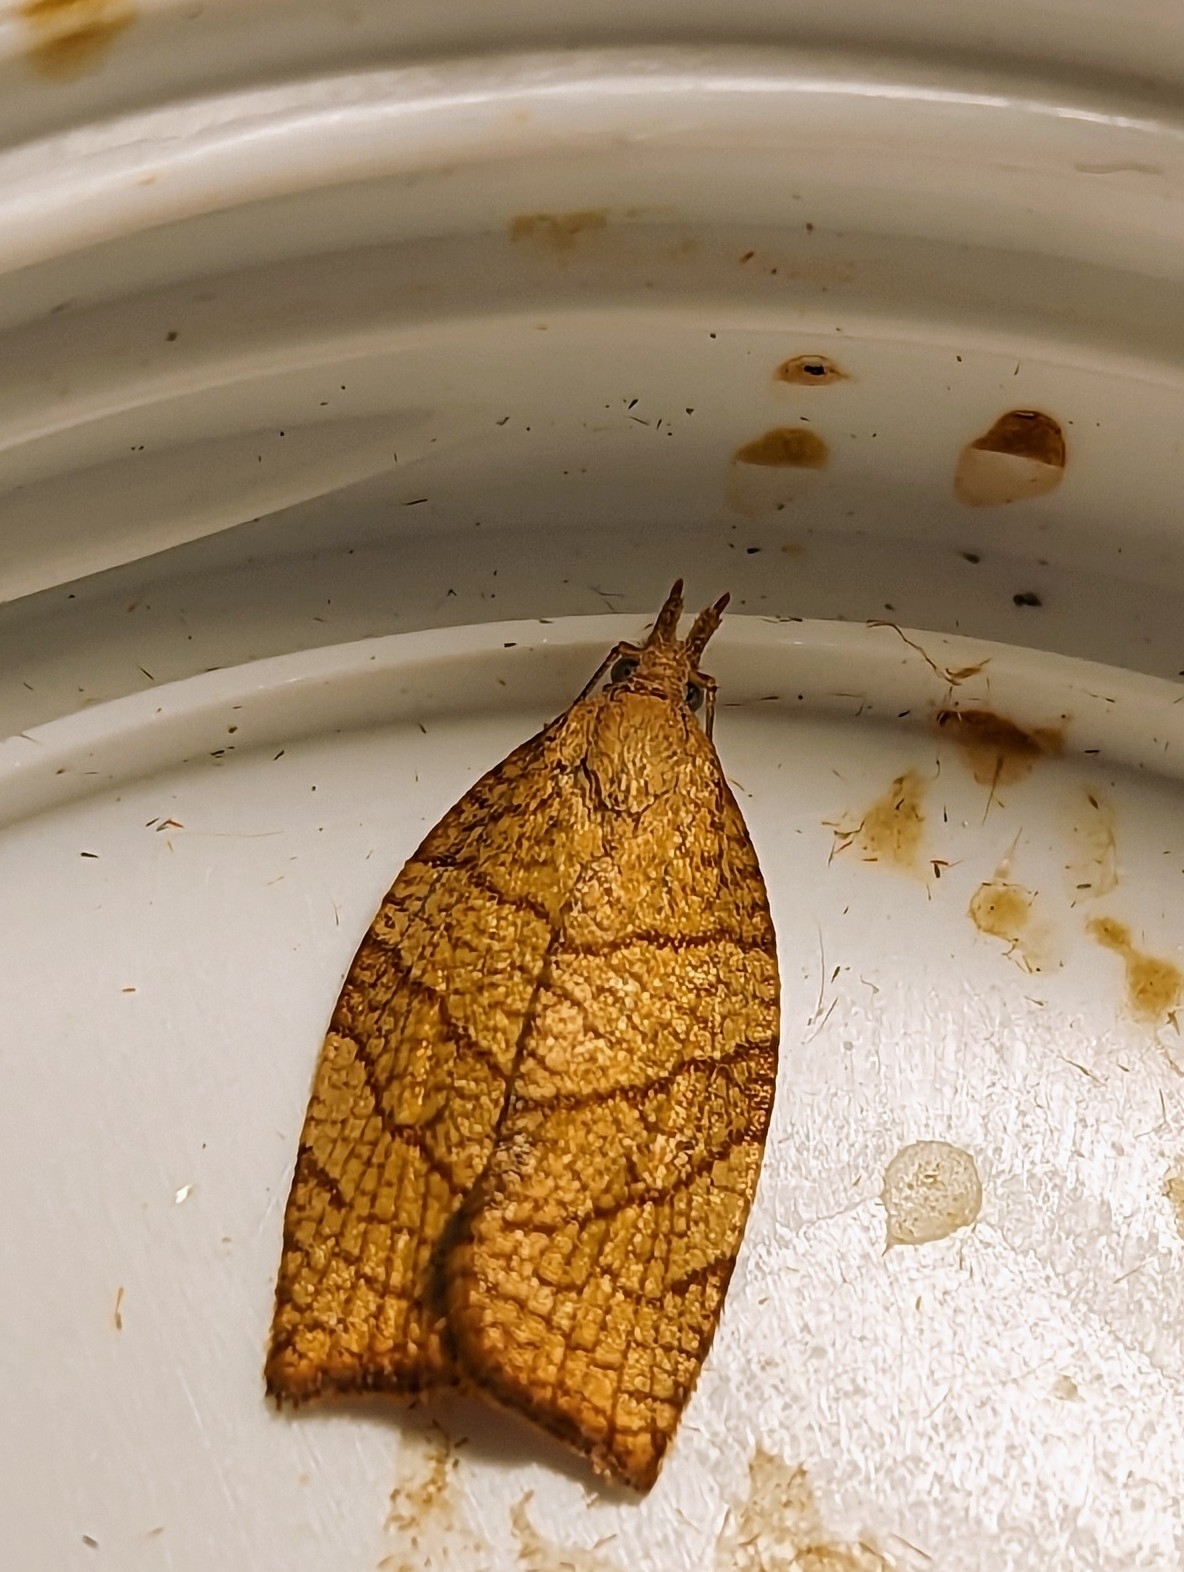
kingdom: Animalia
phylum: Arthropoda
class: Insecta
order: Lepidoptera
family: Tortricidae
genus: Pandemis
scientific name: Pandemis corylana
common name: Chequered fruit-tree tortrix
